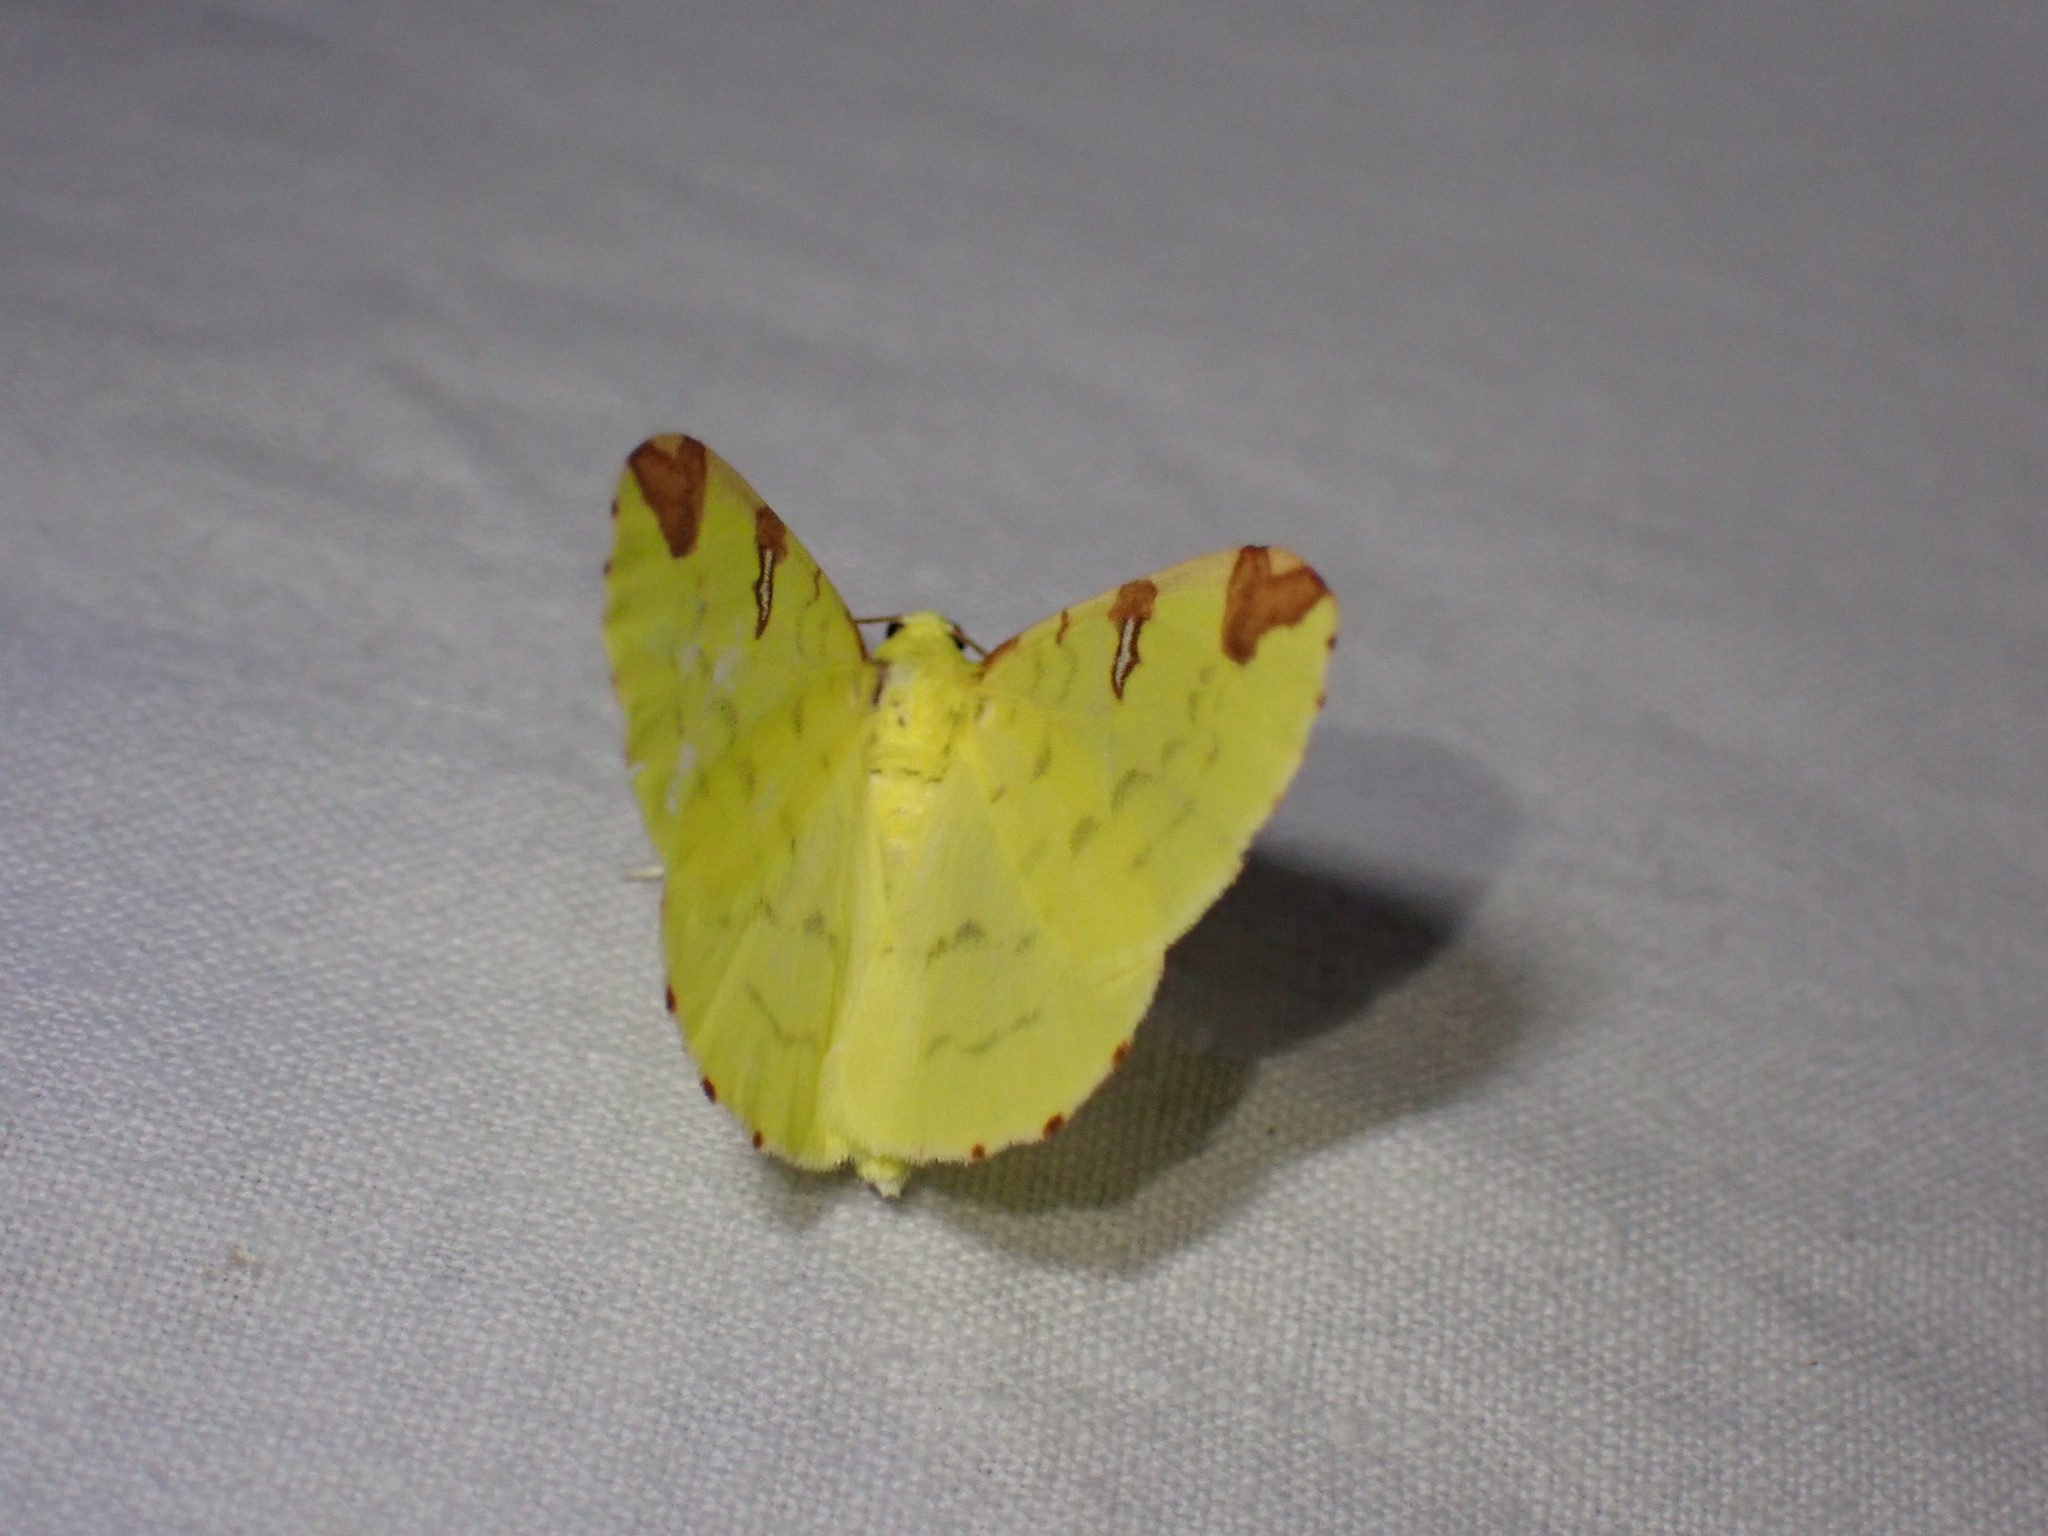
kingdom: Animalia
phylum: Arthropoda
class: Insecta
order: Lepidoptera
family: Geometridae
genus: Opisthograptis
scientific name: Opisthograptis luteolata
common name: Brimstone moth
